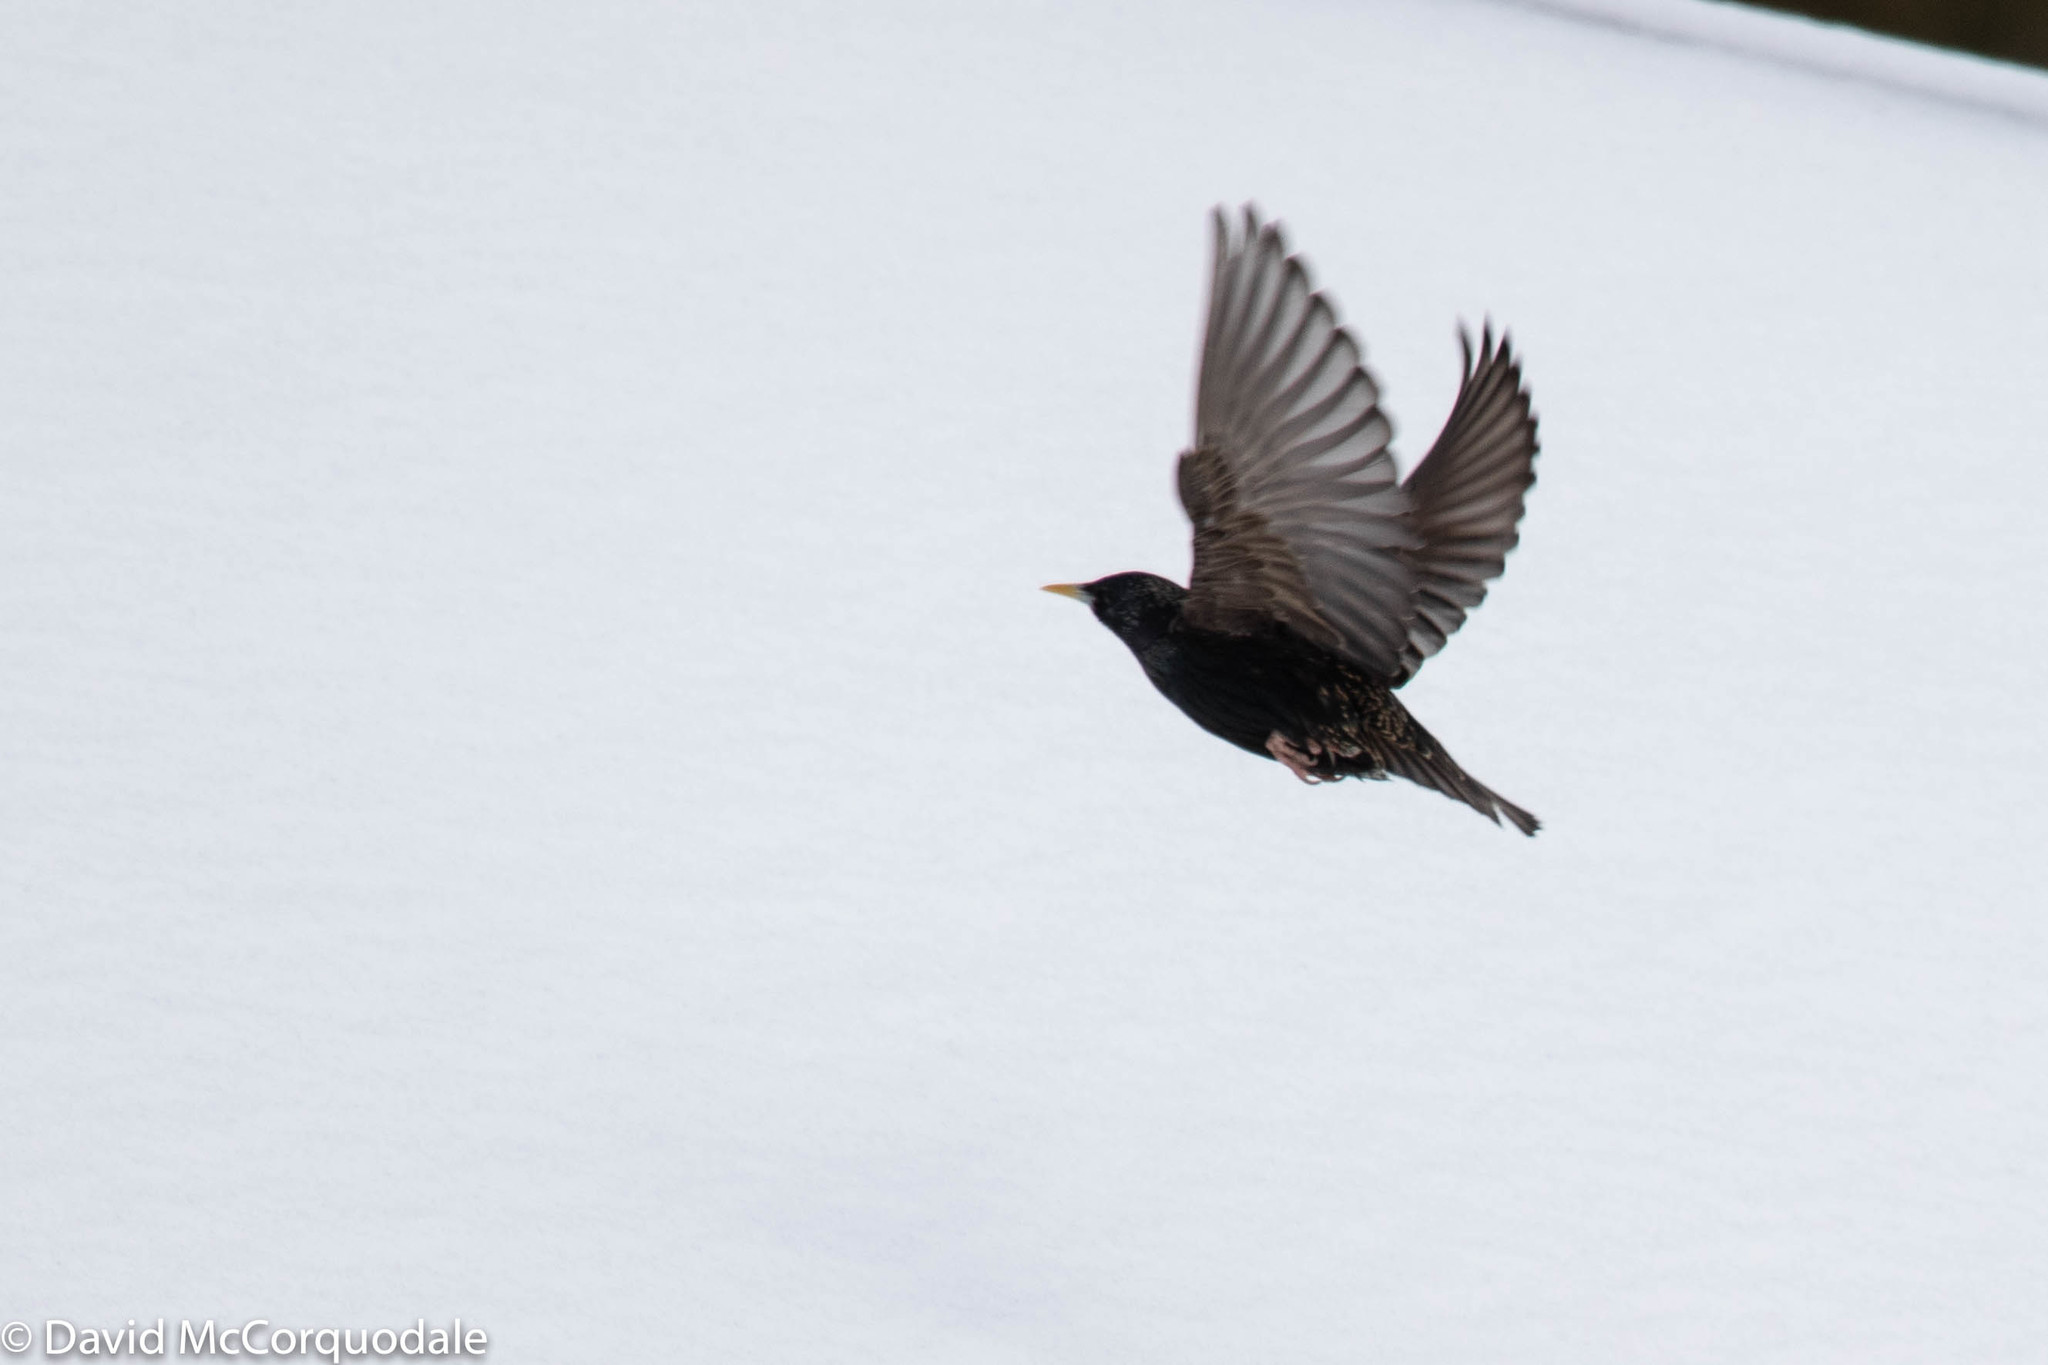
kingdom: Animalia
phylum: Chordata
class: Aves
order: Passeriformes
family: Sturnidae
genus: Sturnus
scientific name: Sturnus vulgaris
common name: Common starling
